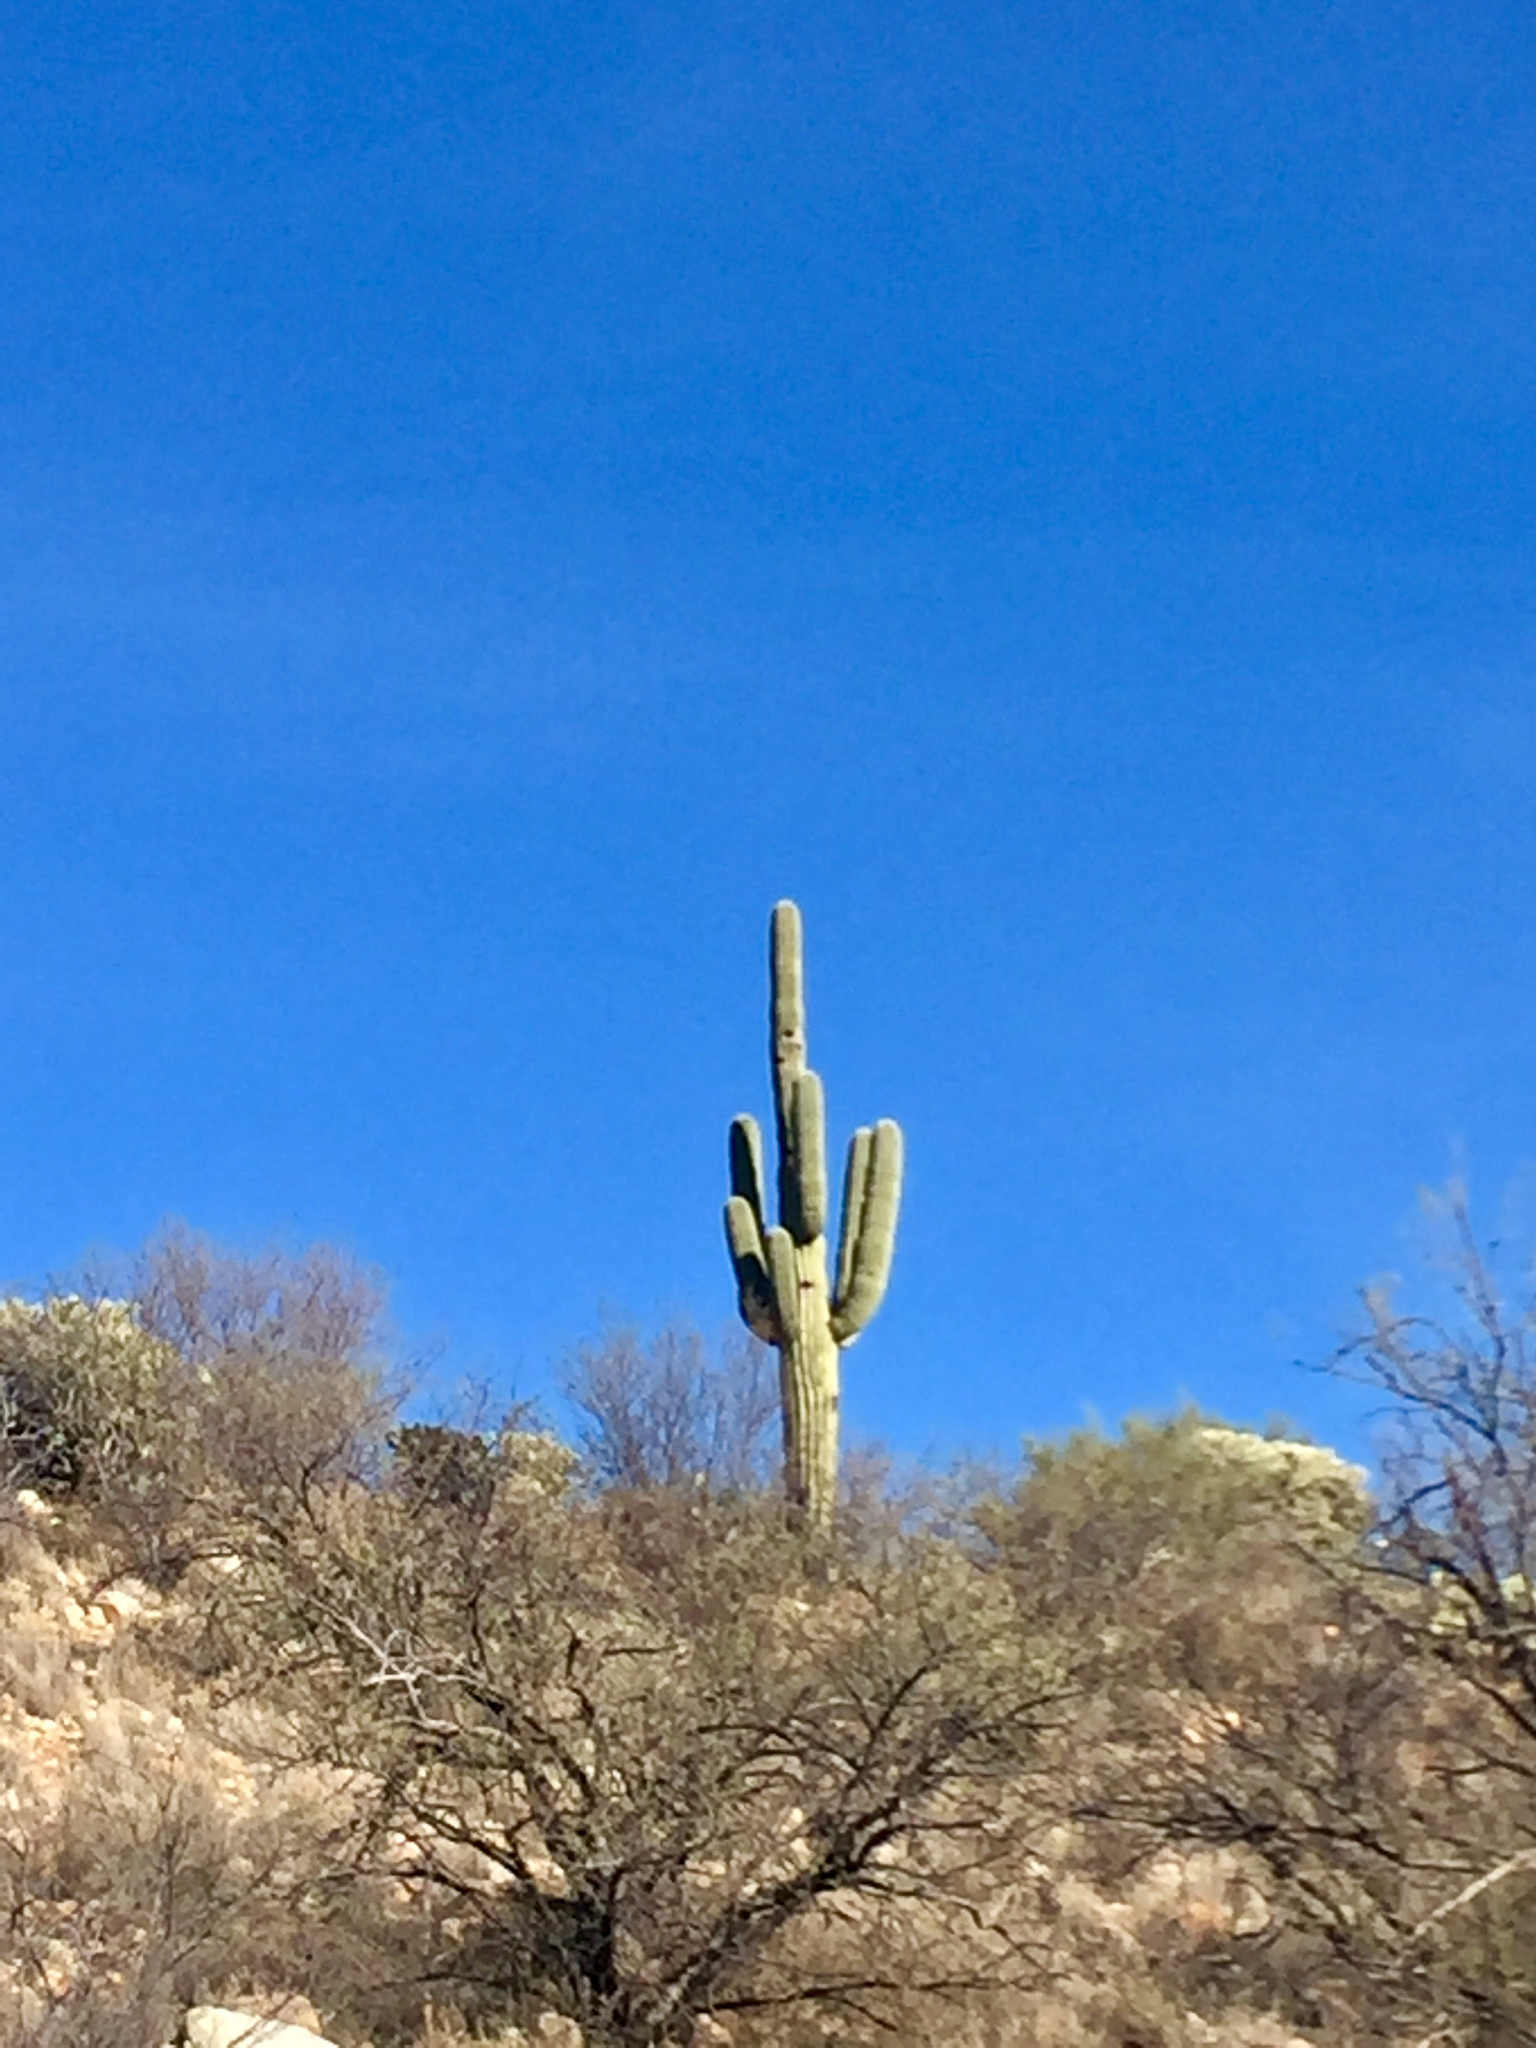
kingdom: Plantae
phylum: Tracheophyta
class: Magnoliopsida
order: Caryophyllales
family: Cactaceae
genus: Carnegiea
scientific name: Carnegiea gigantea
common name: Saguaro
